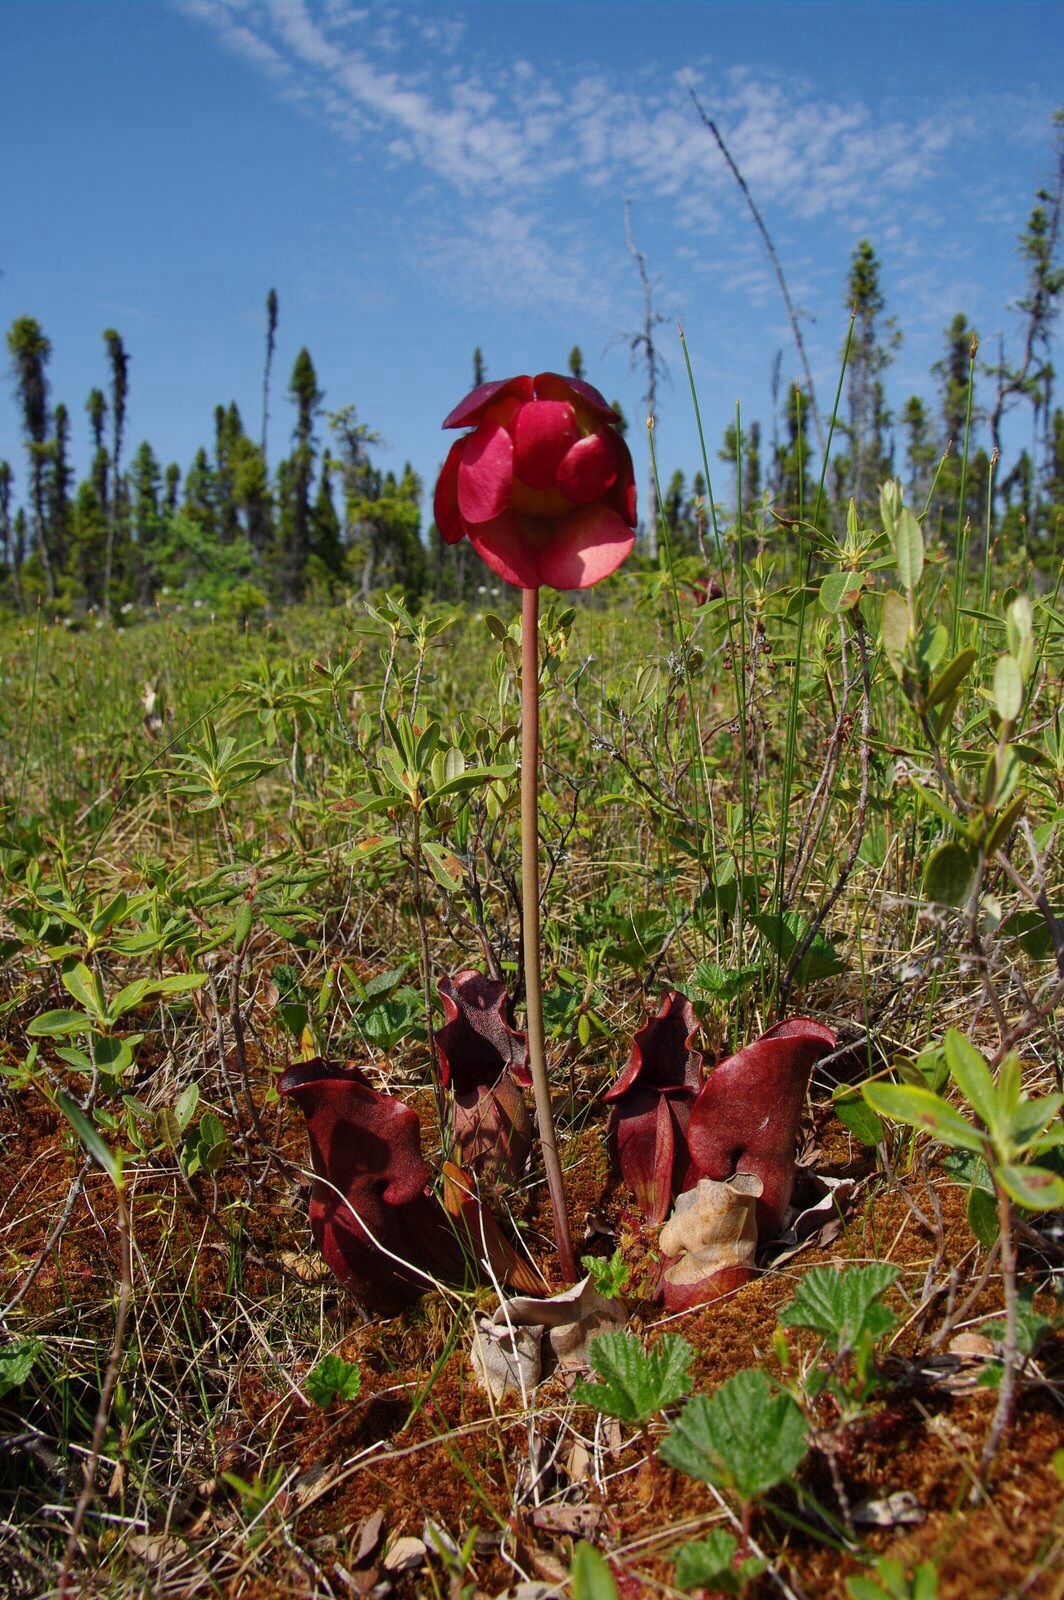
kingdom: Plantae
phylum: Tracheophyta
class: Magnoliopsida
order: Ericales
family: Sarraceniaceae
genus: Sarracenia
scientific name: Sarracenia purpurea
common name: Pitcherplant
